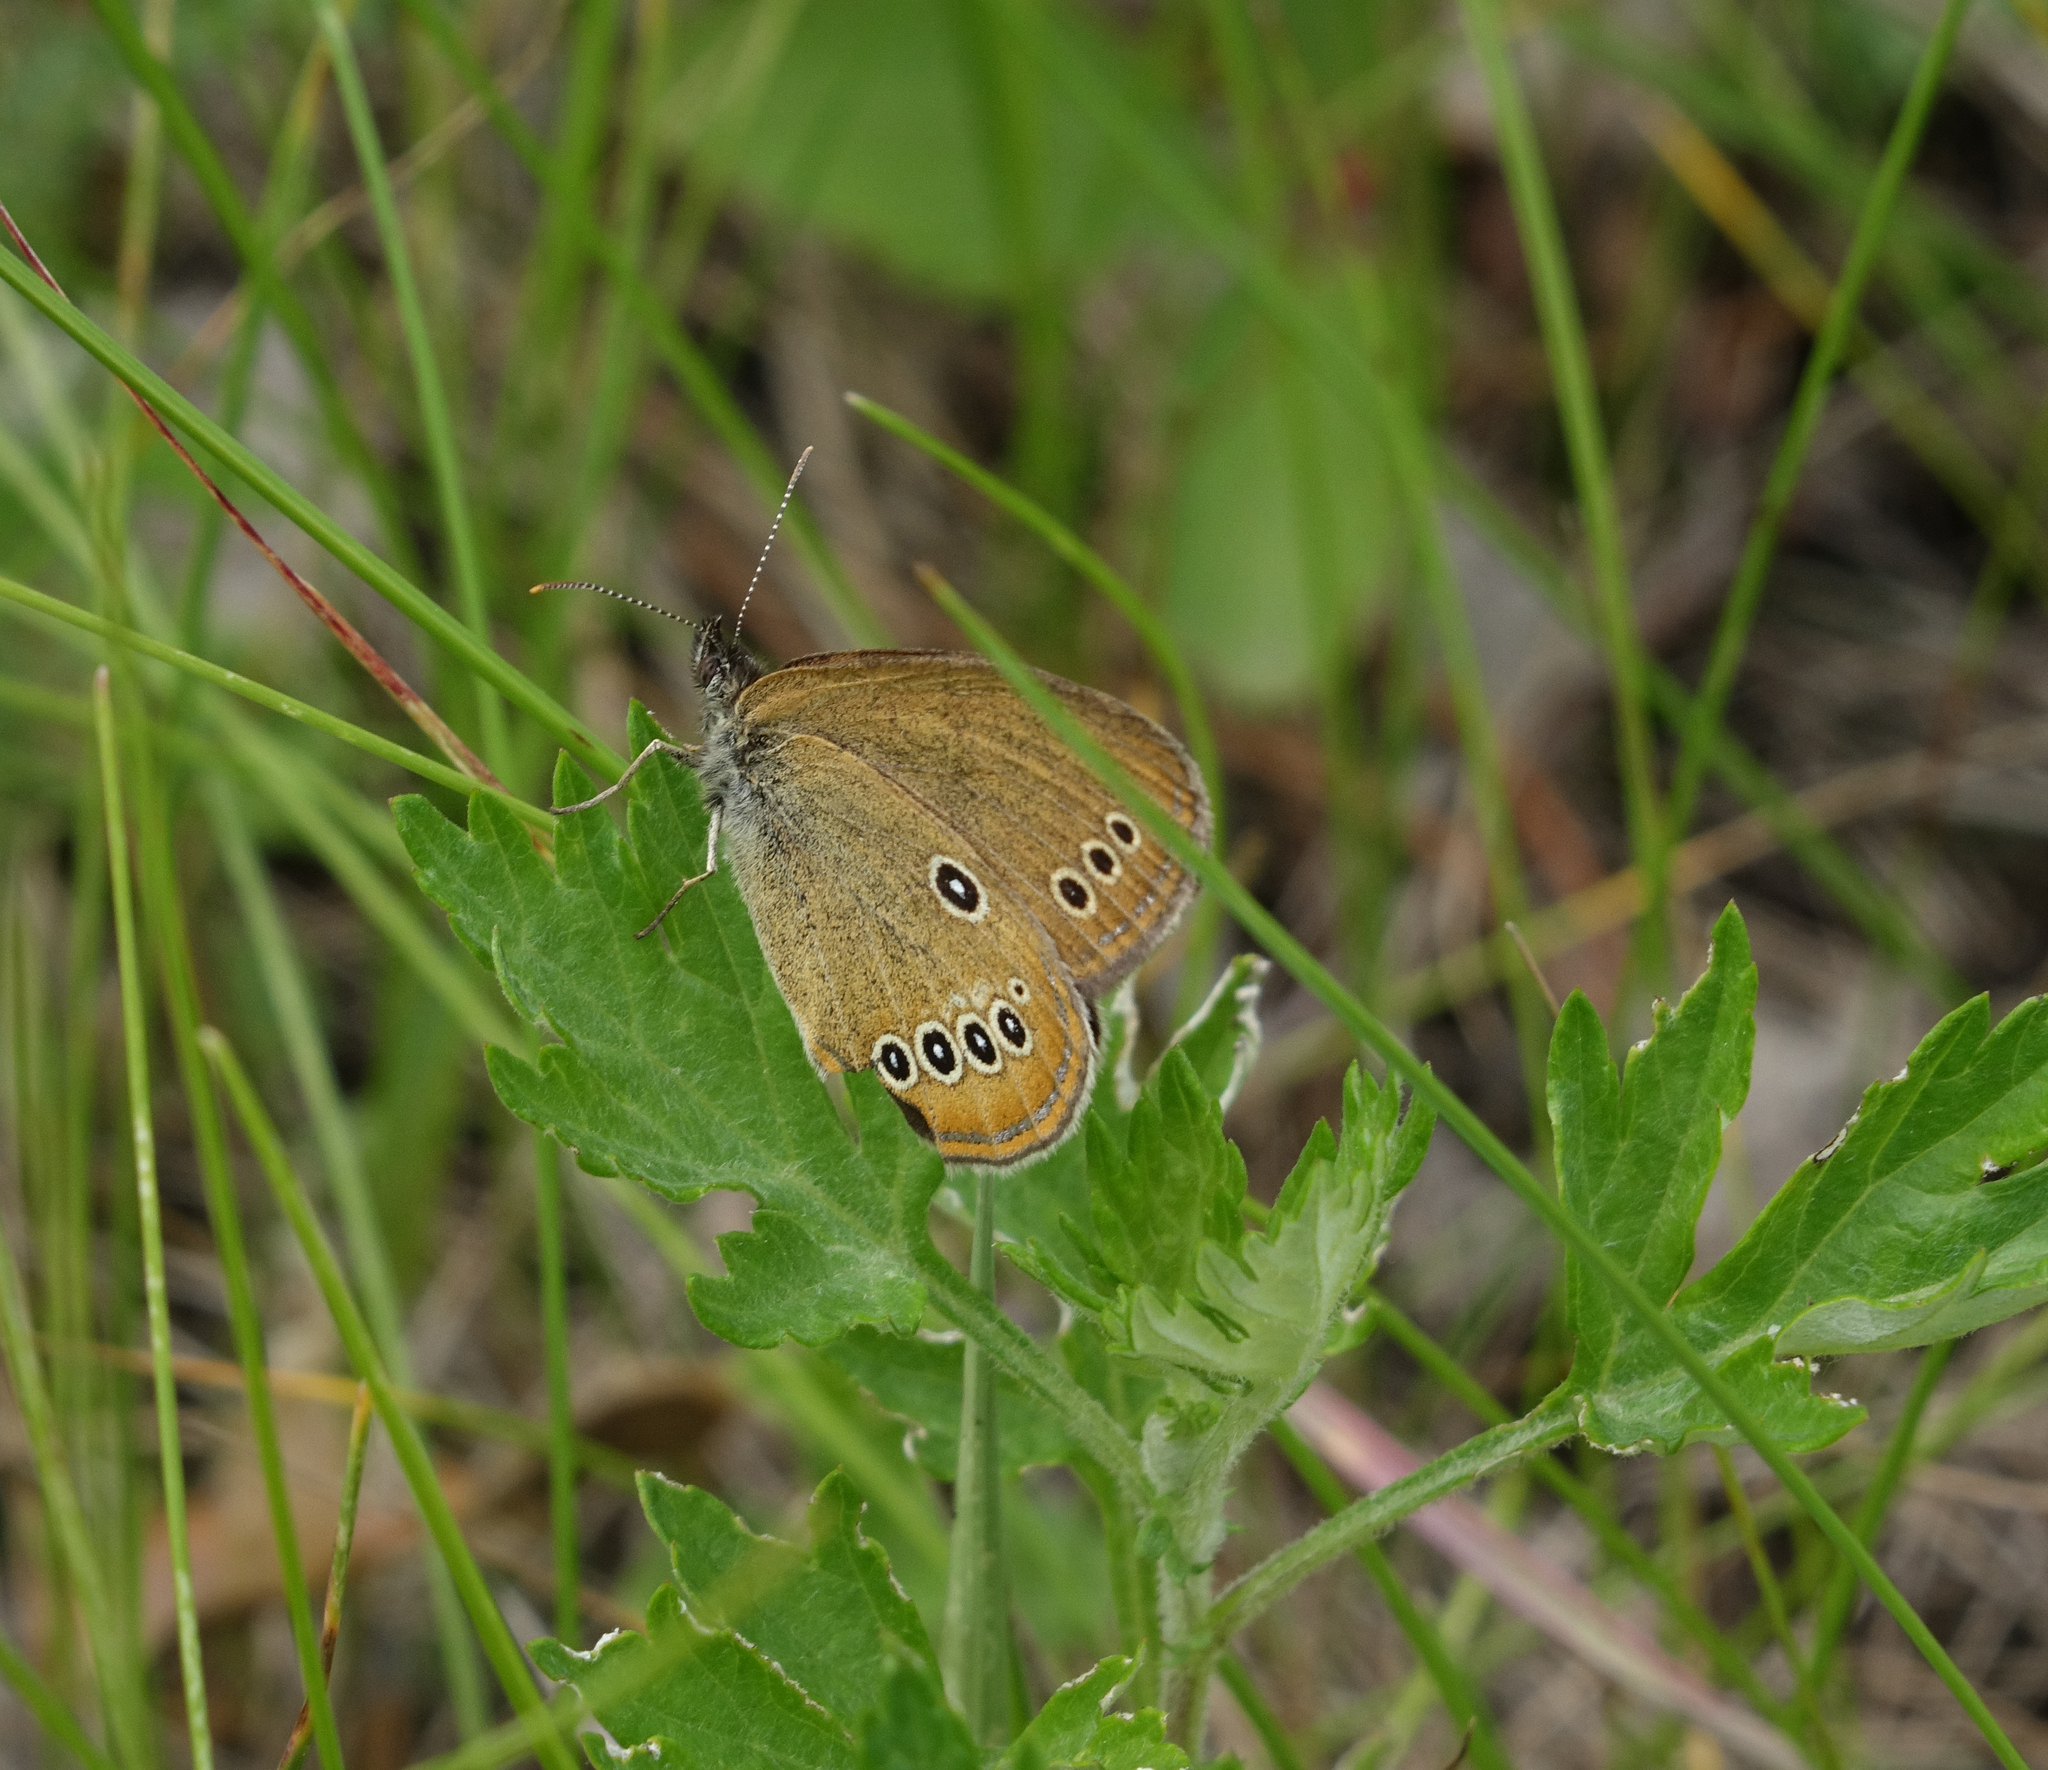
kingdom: Animalia
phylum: Arthropoda
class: Insecta
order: Lepidoptera
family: Nymphalidae
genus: Coenonympha
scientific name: Coenonympha oedippus
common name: False ringlet
